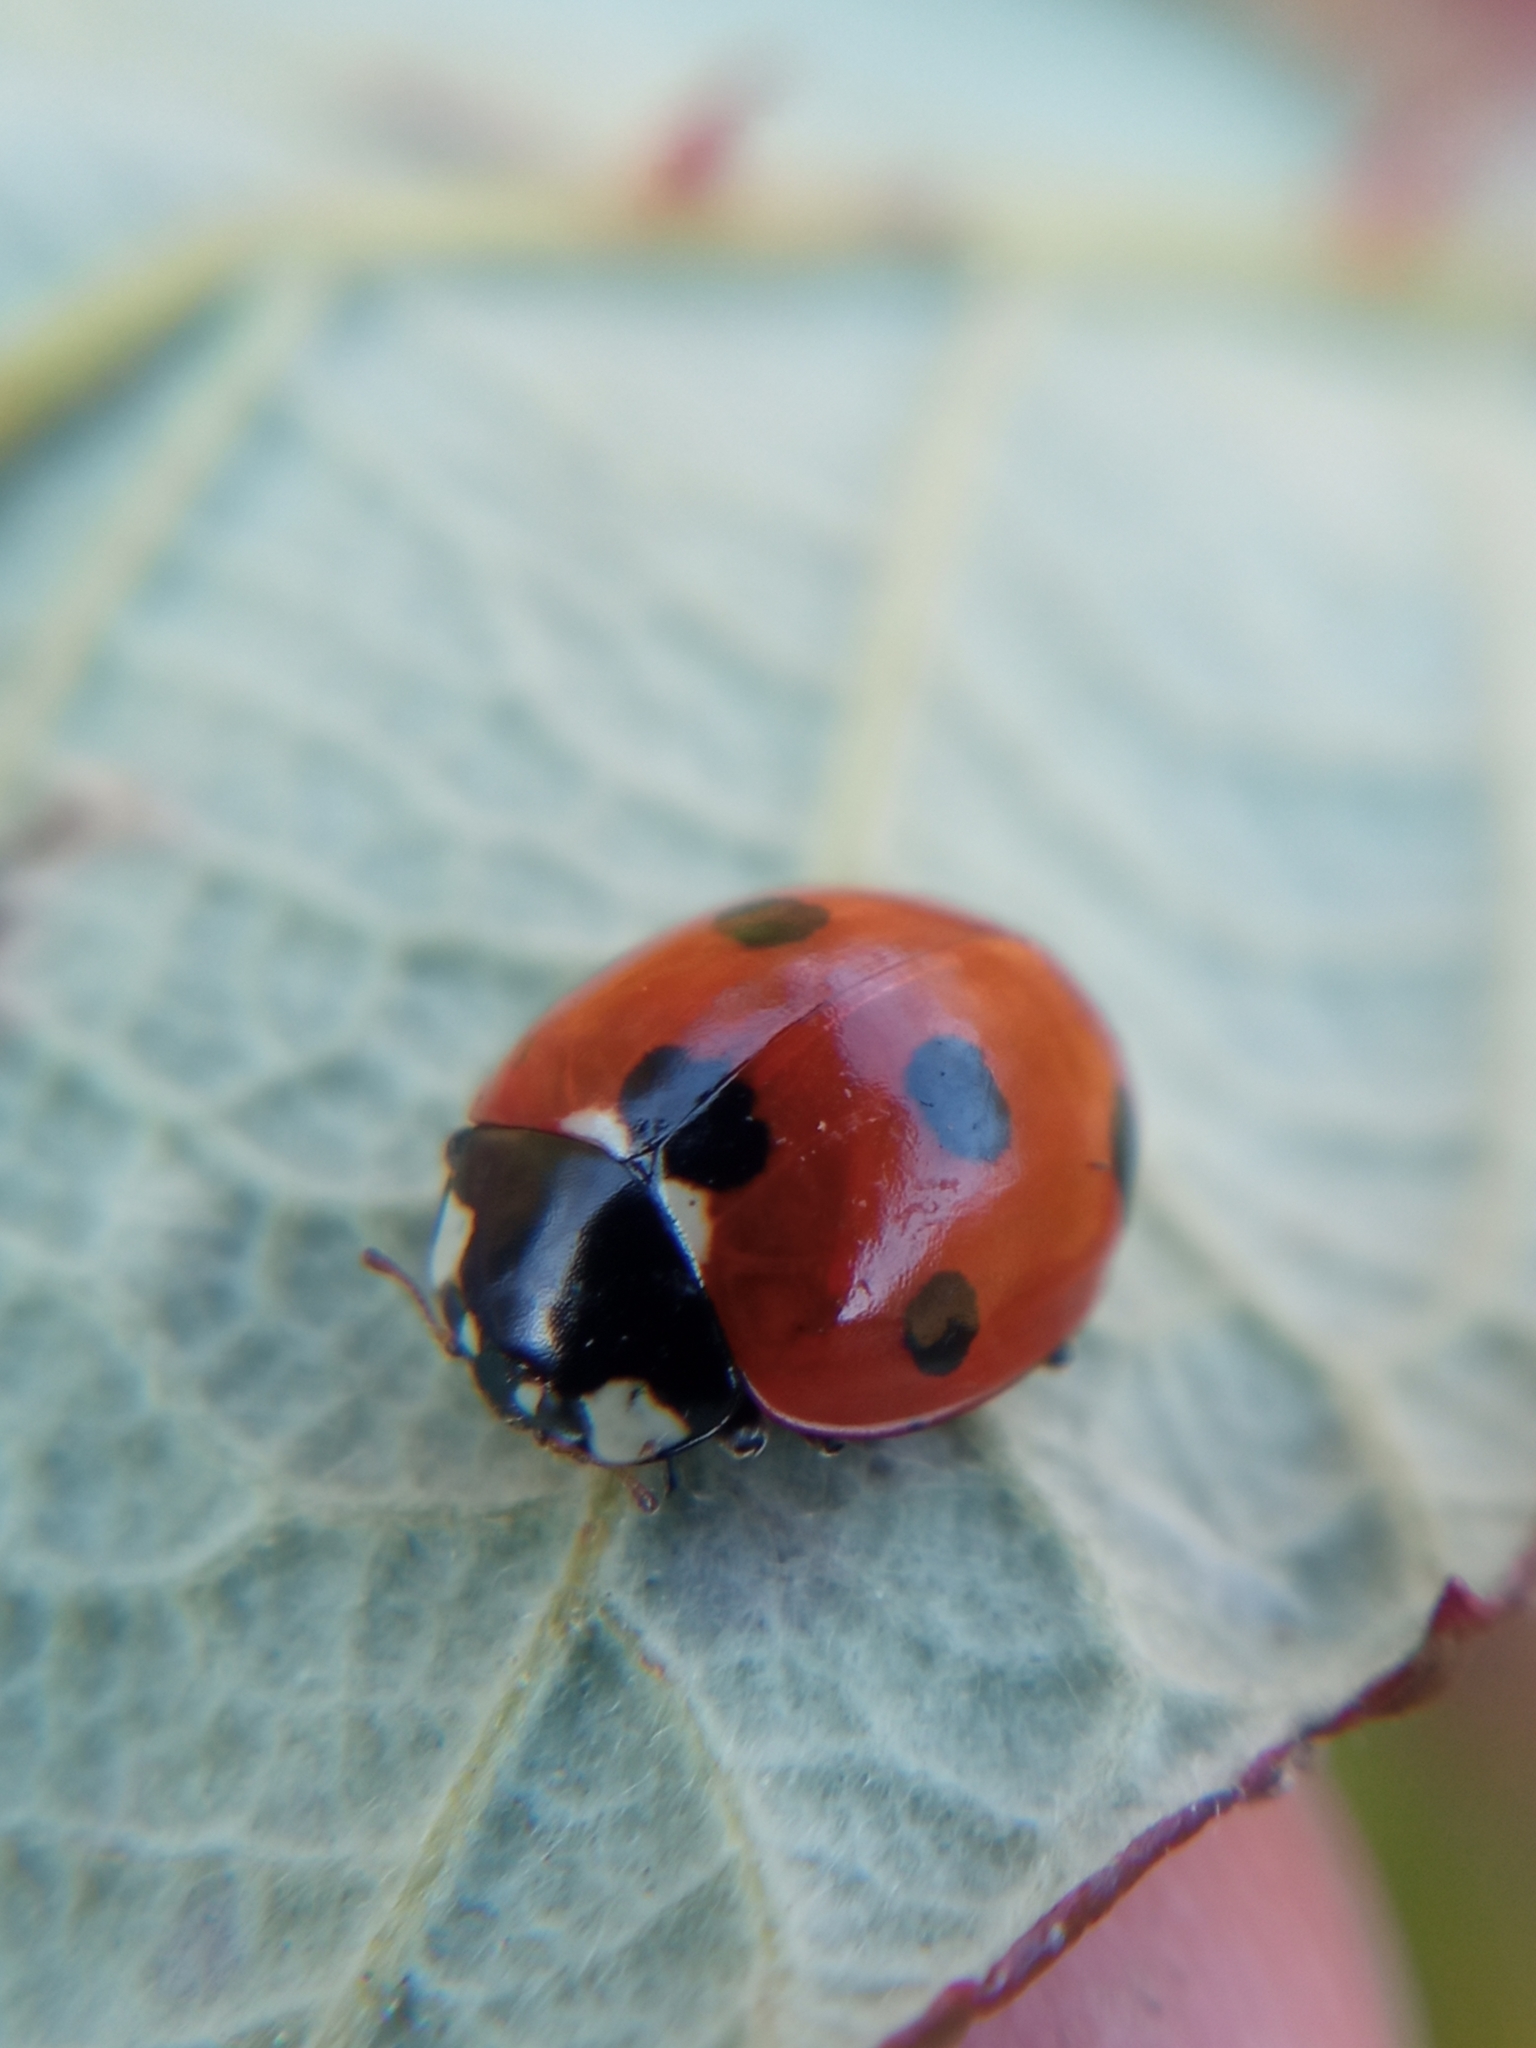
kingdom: Animalia
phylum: Arthropoda
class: Insecta
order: Coleoptera
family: Coccinellidae
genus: Coccinella
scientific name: Coccinella septempunctata
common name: Sevenspotted lady beetle
